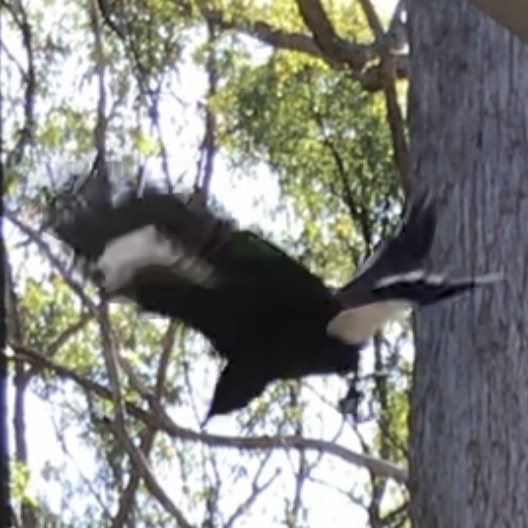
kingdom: Animalia
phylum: Chordata
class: Aves
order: Passeriformes
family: Cracticidae
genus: Strepera
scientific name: Strepera graculina
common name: Pied currawong
